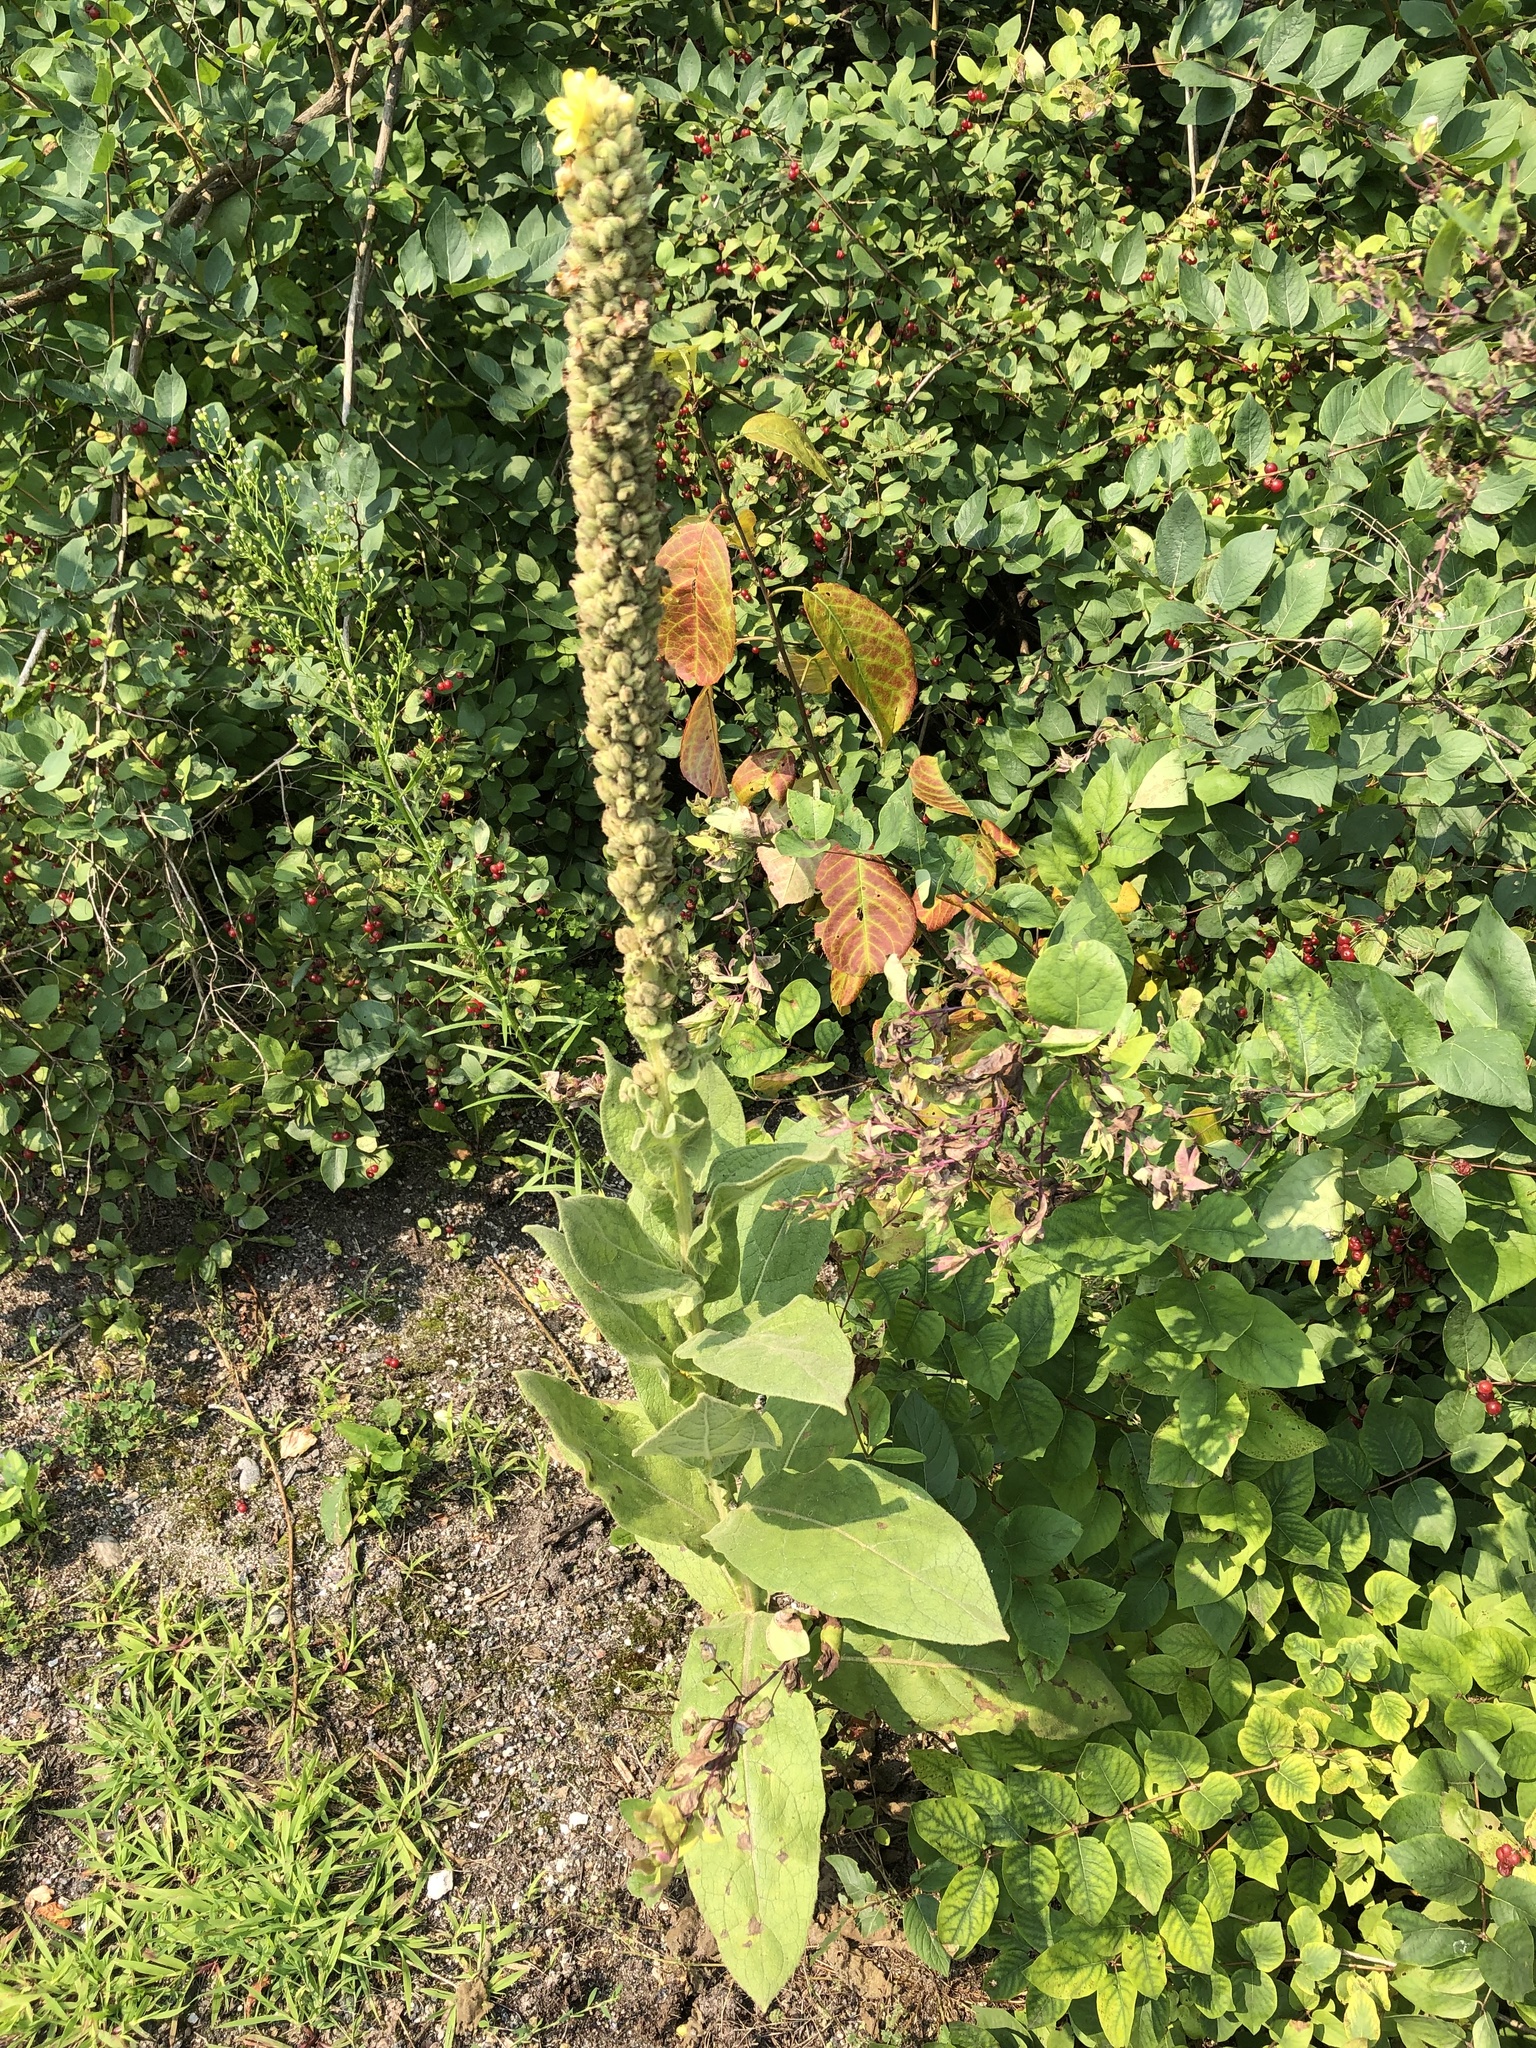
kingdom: Plantae
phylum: Tracheophyta
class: Magnoliopsida
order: Lamiales
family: Scrophulariaceae
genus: Verbascum
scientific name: Verbascum thapsus
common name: Common mullein
